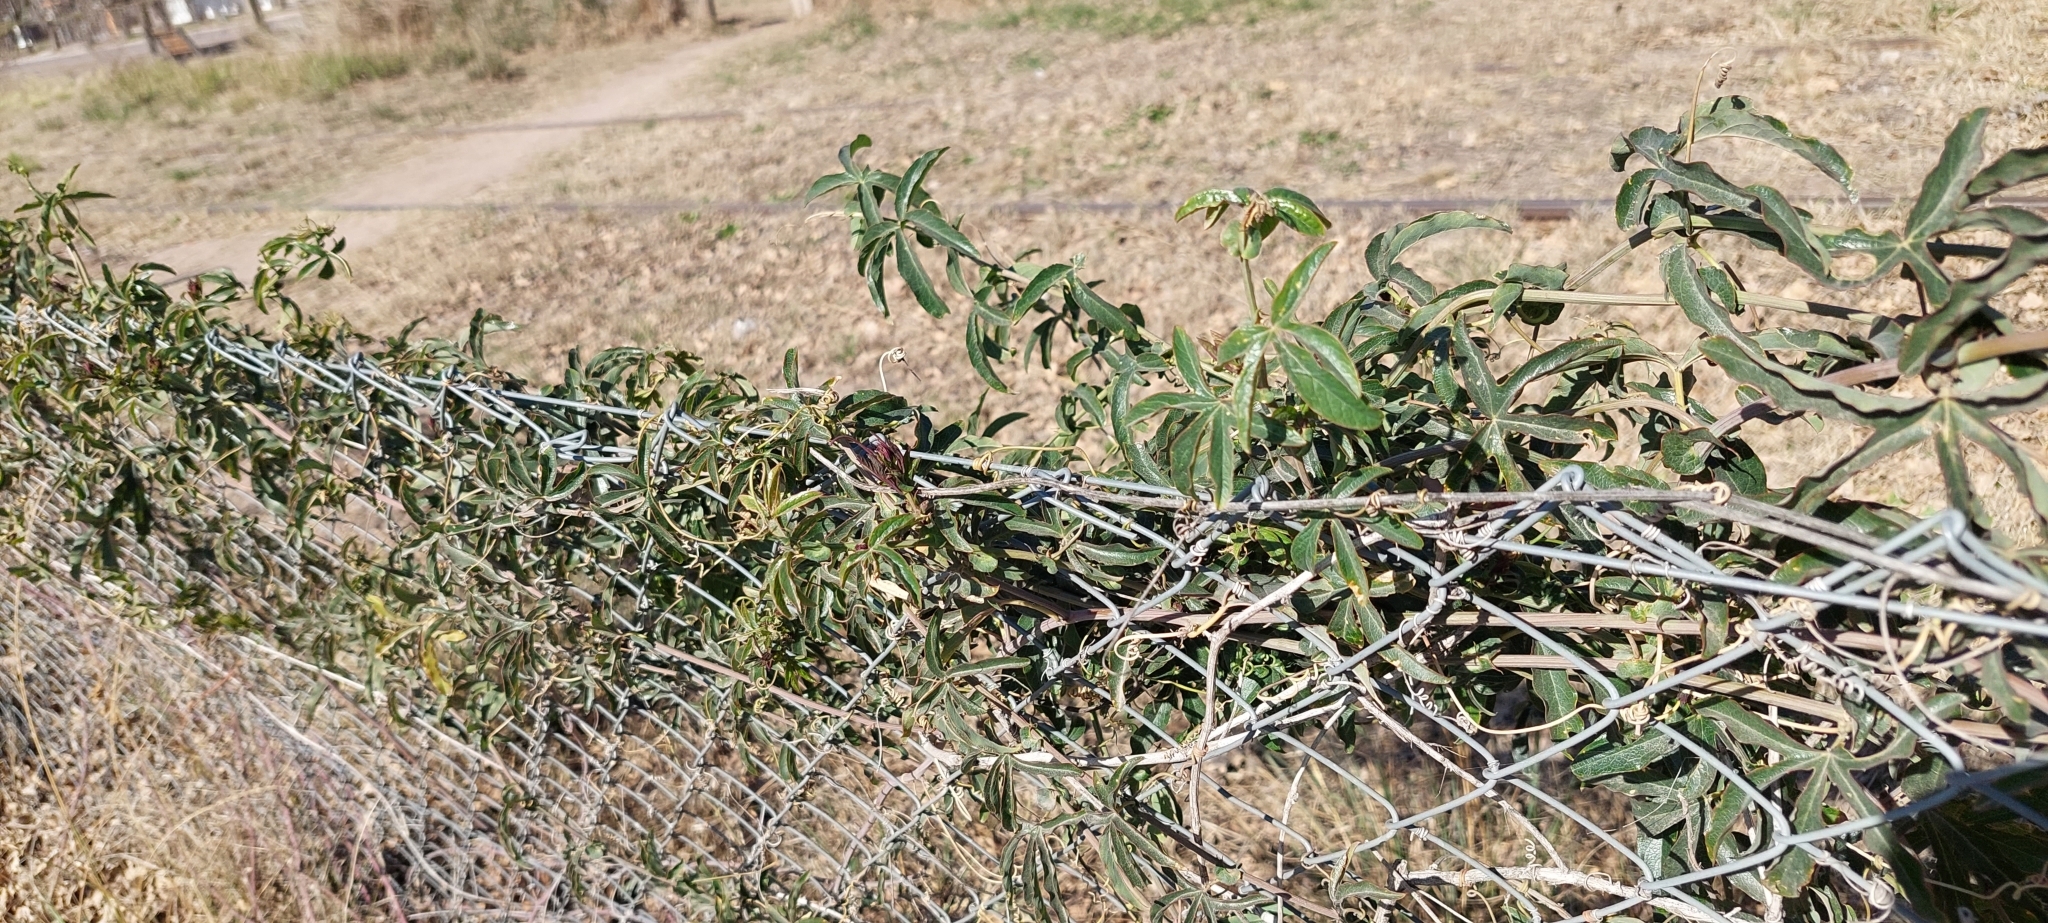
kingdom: Plantae
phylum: Tracheophyta
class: Magnoliopsida
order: Malpighiales
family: Passifloraceae
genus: Passiflora
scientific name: Passiflora caerulea
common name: Blue passionflower
